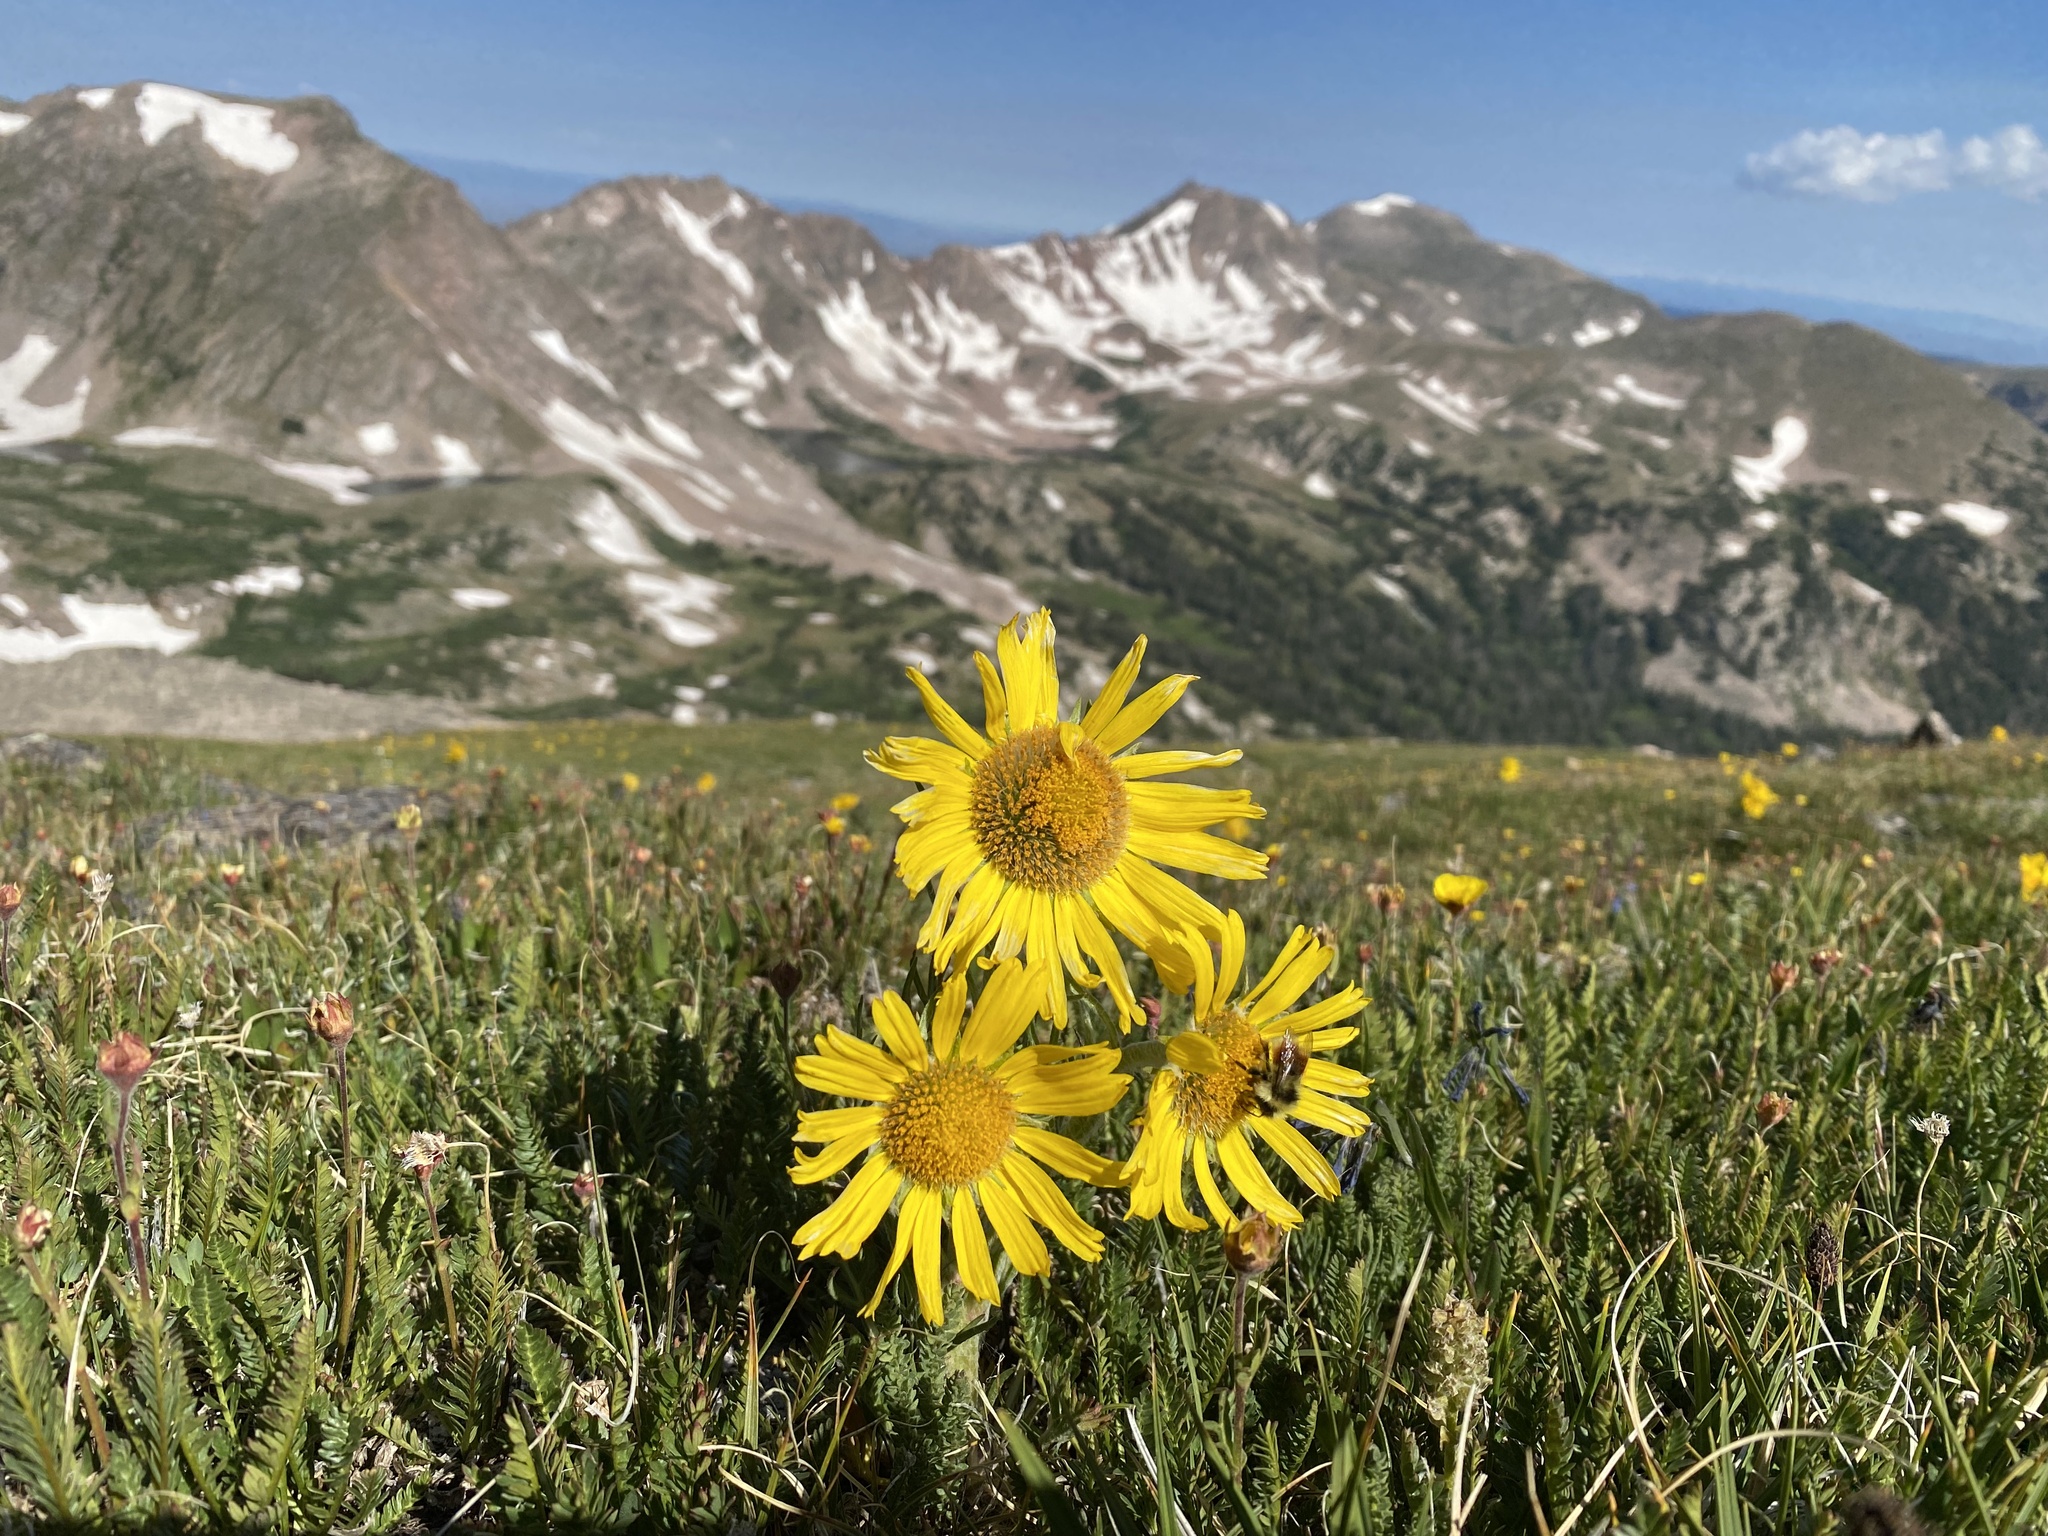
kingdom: Plantae
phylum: Tracheophyta
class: Magnoliopsida
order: Asterales
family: Asteraceae
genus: Hymenoxys
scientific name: Hymenoxys grandiflora
